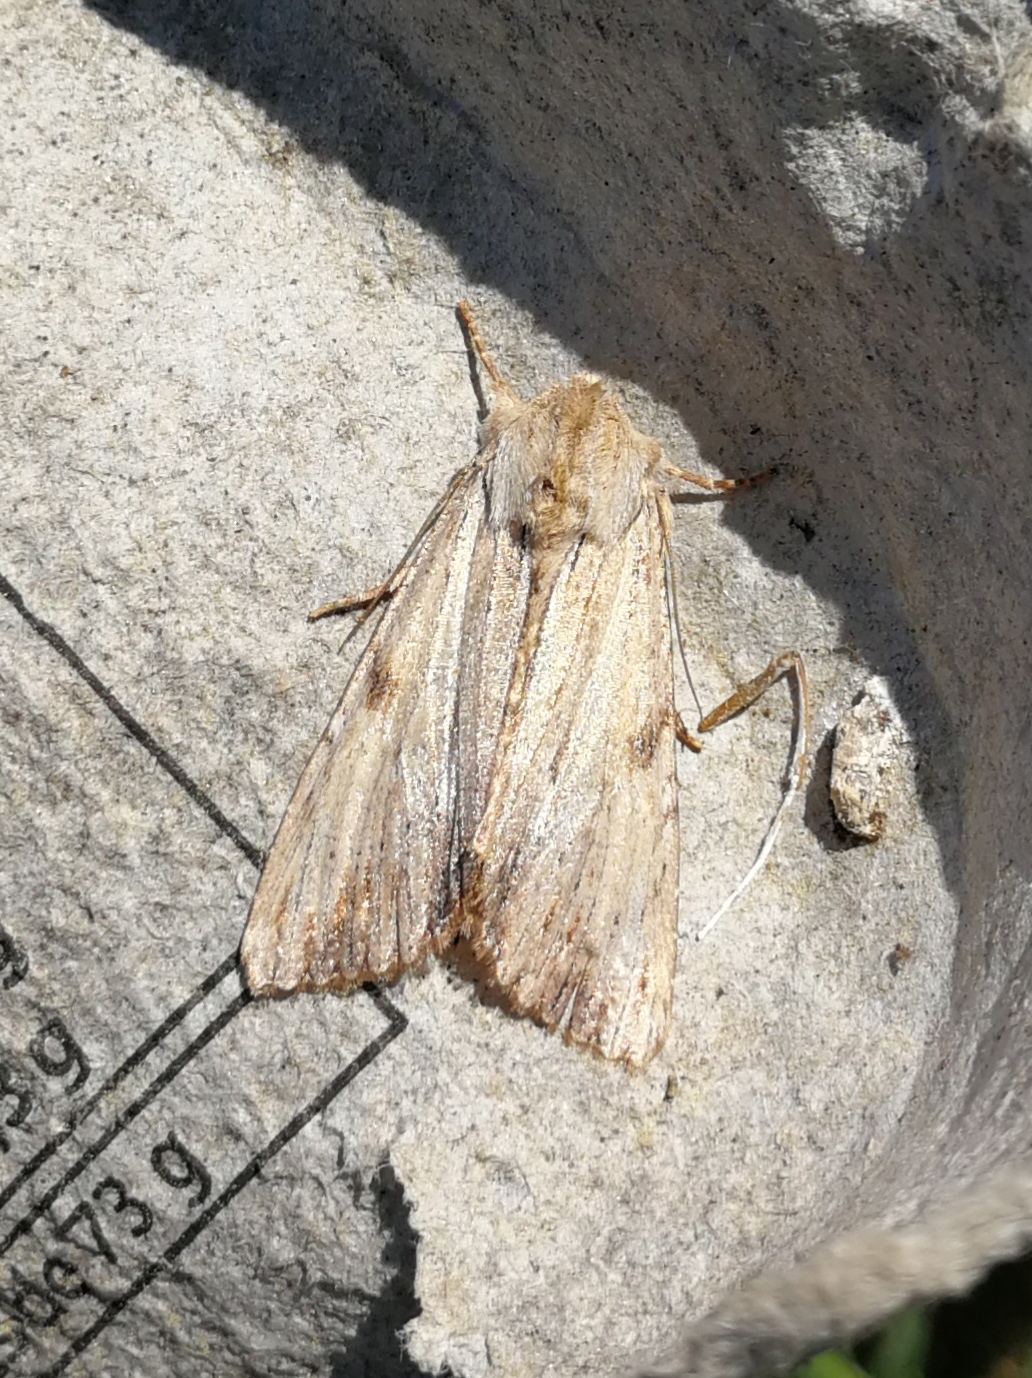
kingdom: Animalia
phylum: Arthropoda
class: Insecta
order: Lepidoptera
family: Noctuidae
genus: Apamea
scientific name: Apamea lithoxylaea
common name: Light arches
